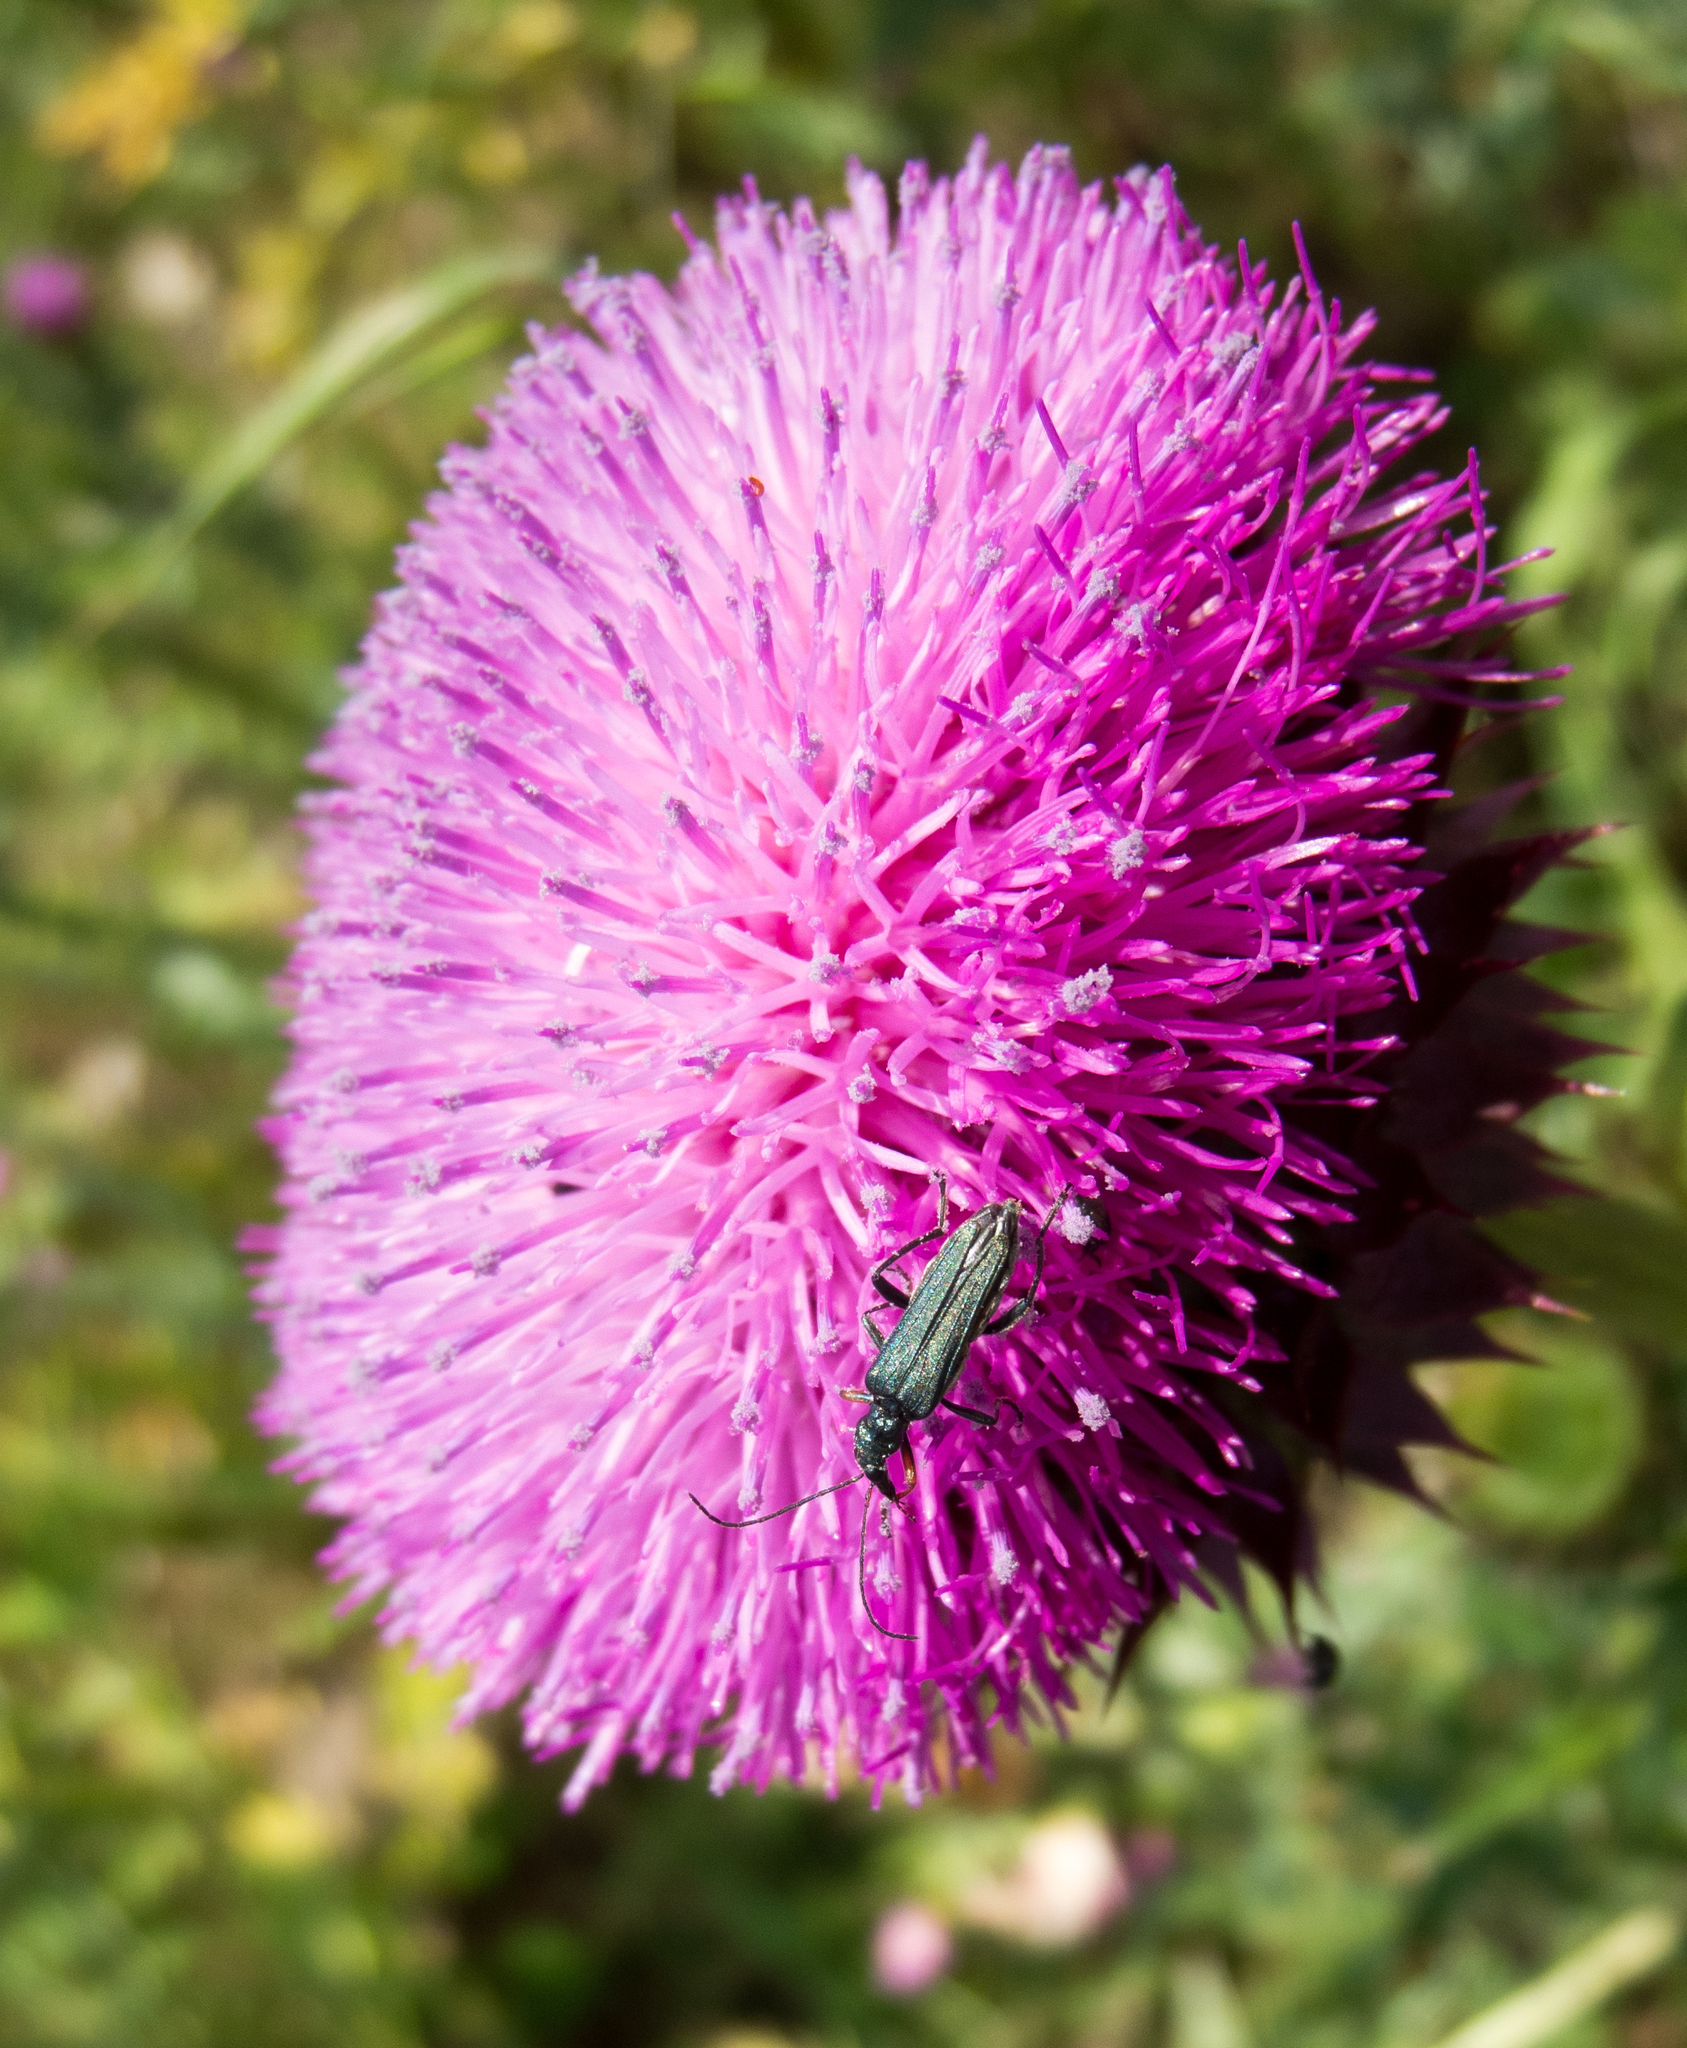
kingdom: Animalia
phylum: Arthropoda
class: Insecta
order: Coleoptera
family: Oedemeridae
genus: Oedemera
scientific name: Oedemera flavipes
